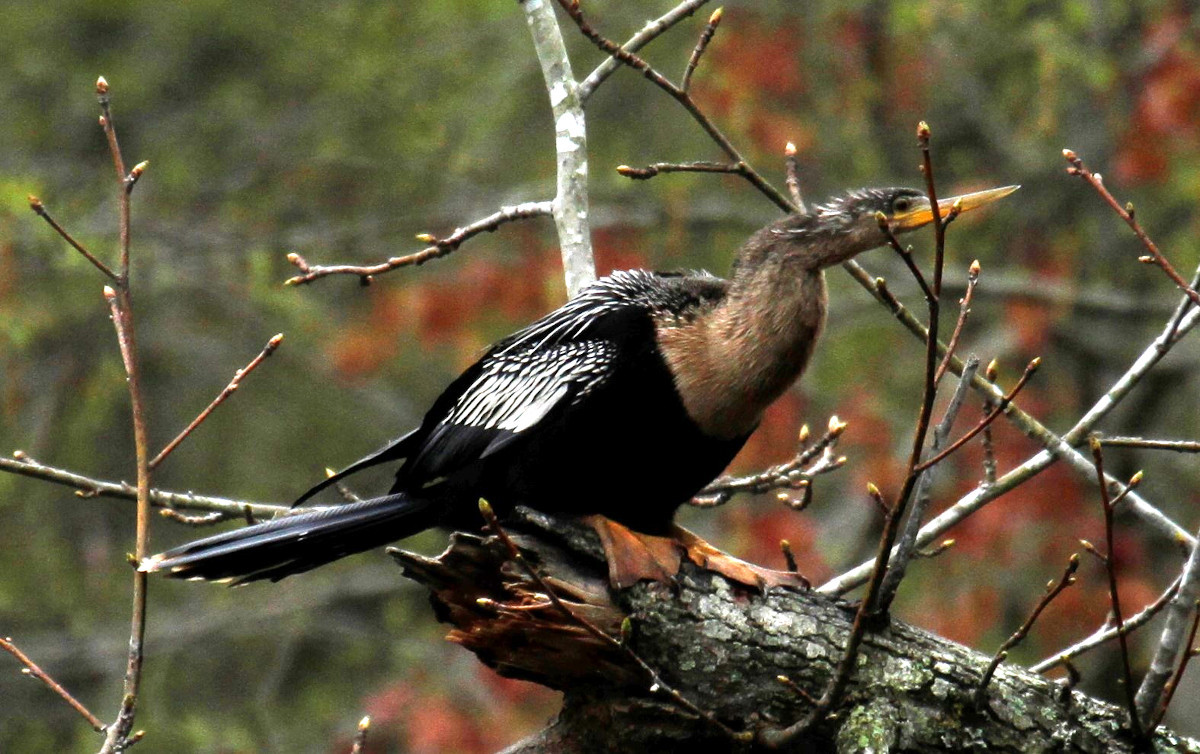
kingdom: Animalia
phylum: Chordata
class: Aves
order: Suliformes
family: Anhingidae
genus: Anhinga
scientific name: Anhinga anhinga
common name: Anhinga
